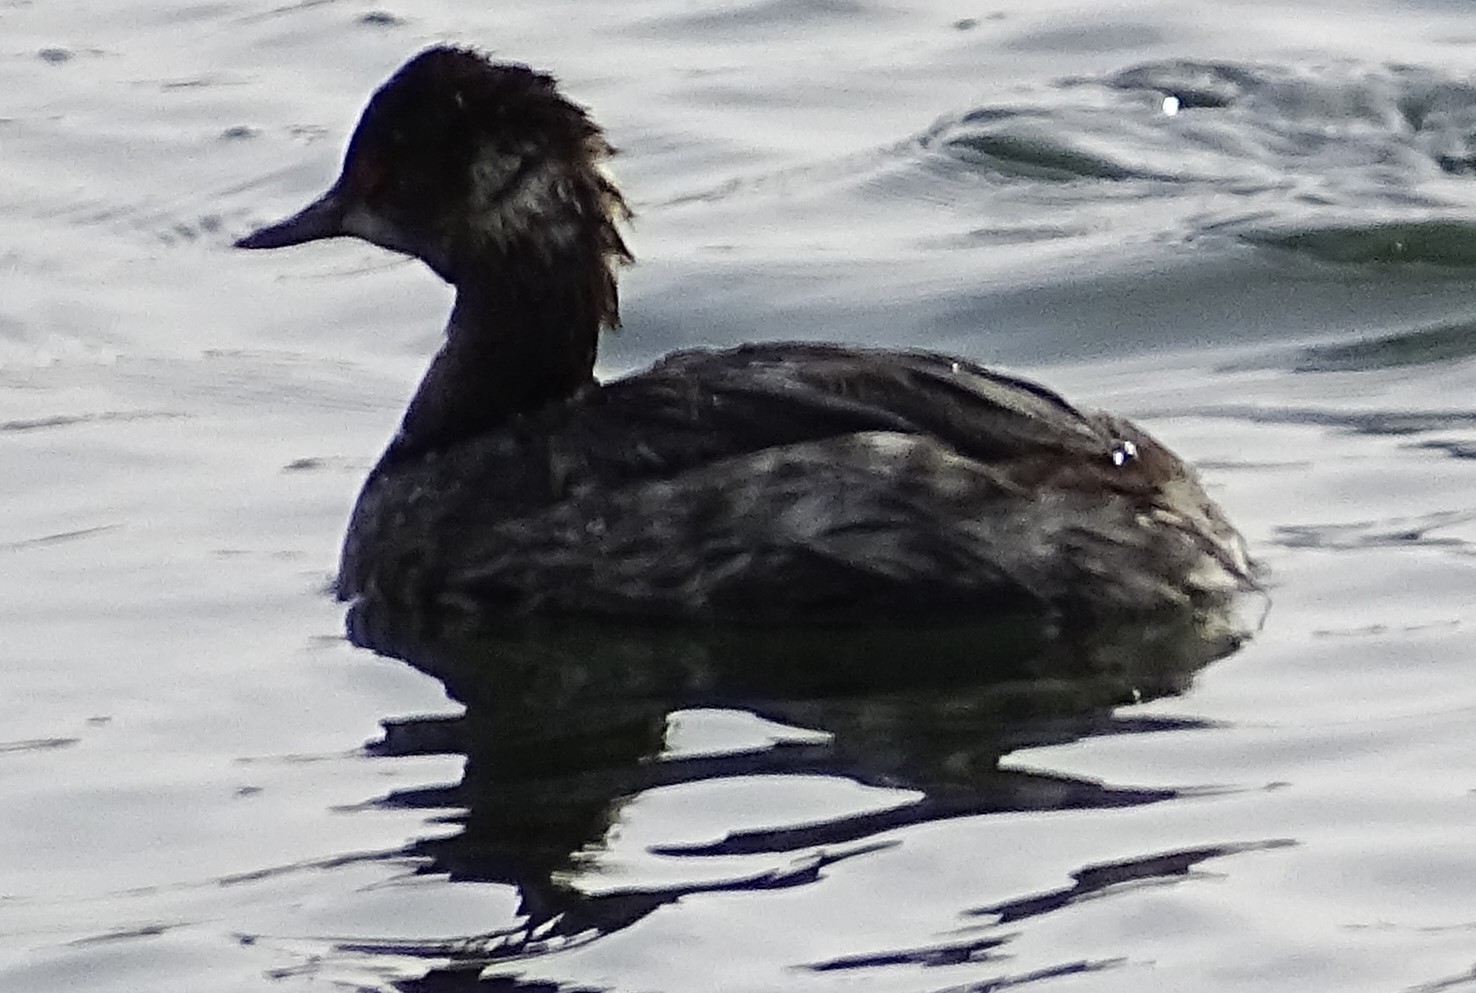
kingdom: Animalia
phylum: Chordata
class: Aves
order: Podicipediformes
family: Podicipedidae
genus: Podiceps
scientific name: Podiceps nigricollis
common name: Black-necked grebe
